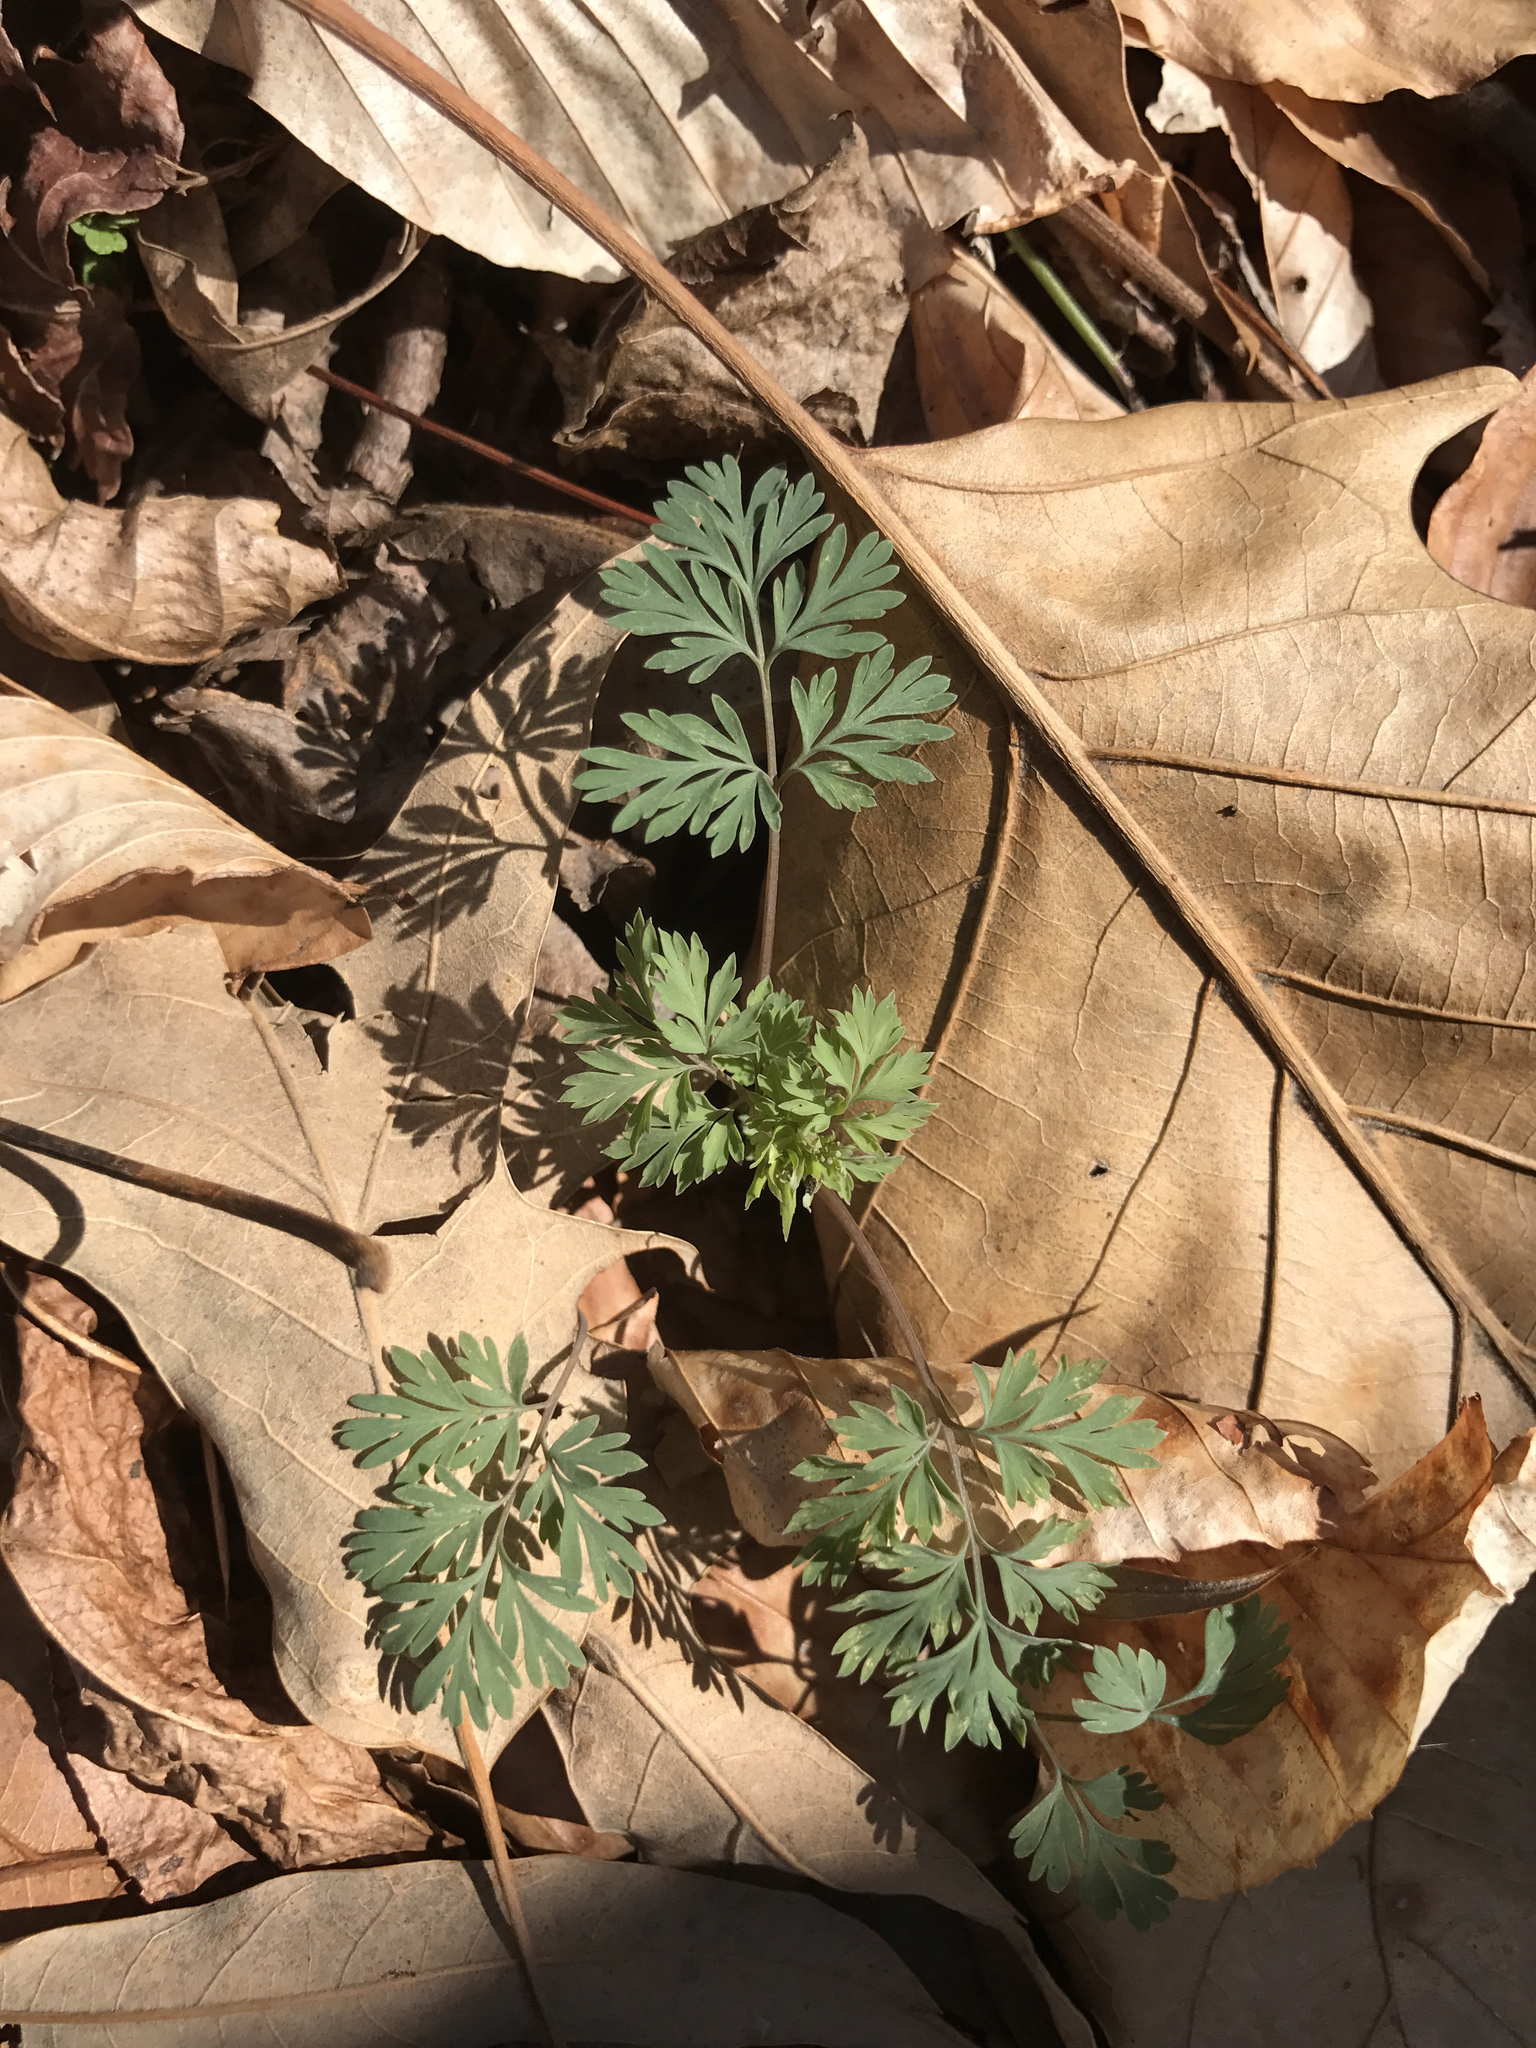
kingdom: Plantae
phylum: Tracheophyta
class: Magnoliopsida
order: Ranunculales
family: Papaveraceae
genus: Dicentra
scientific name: Dicentra cucullaria
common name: Dutchman's breeches
